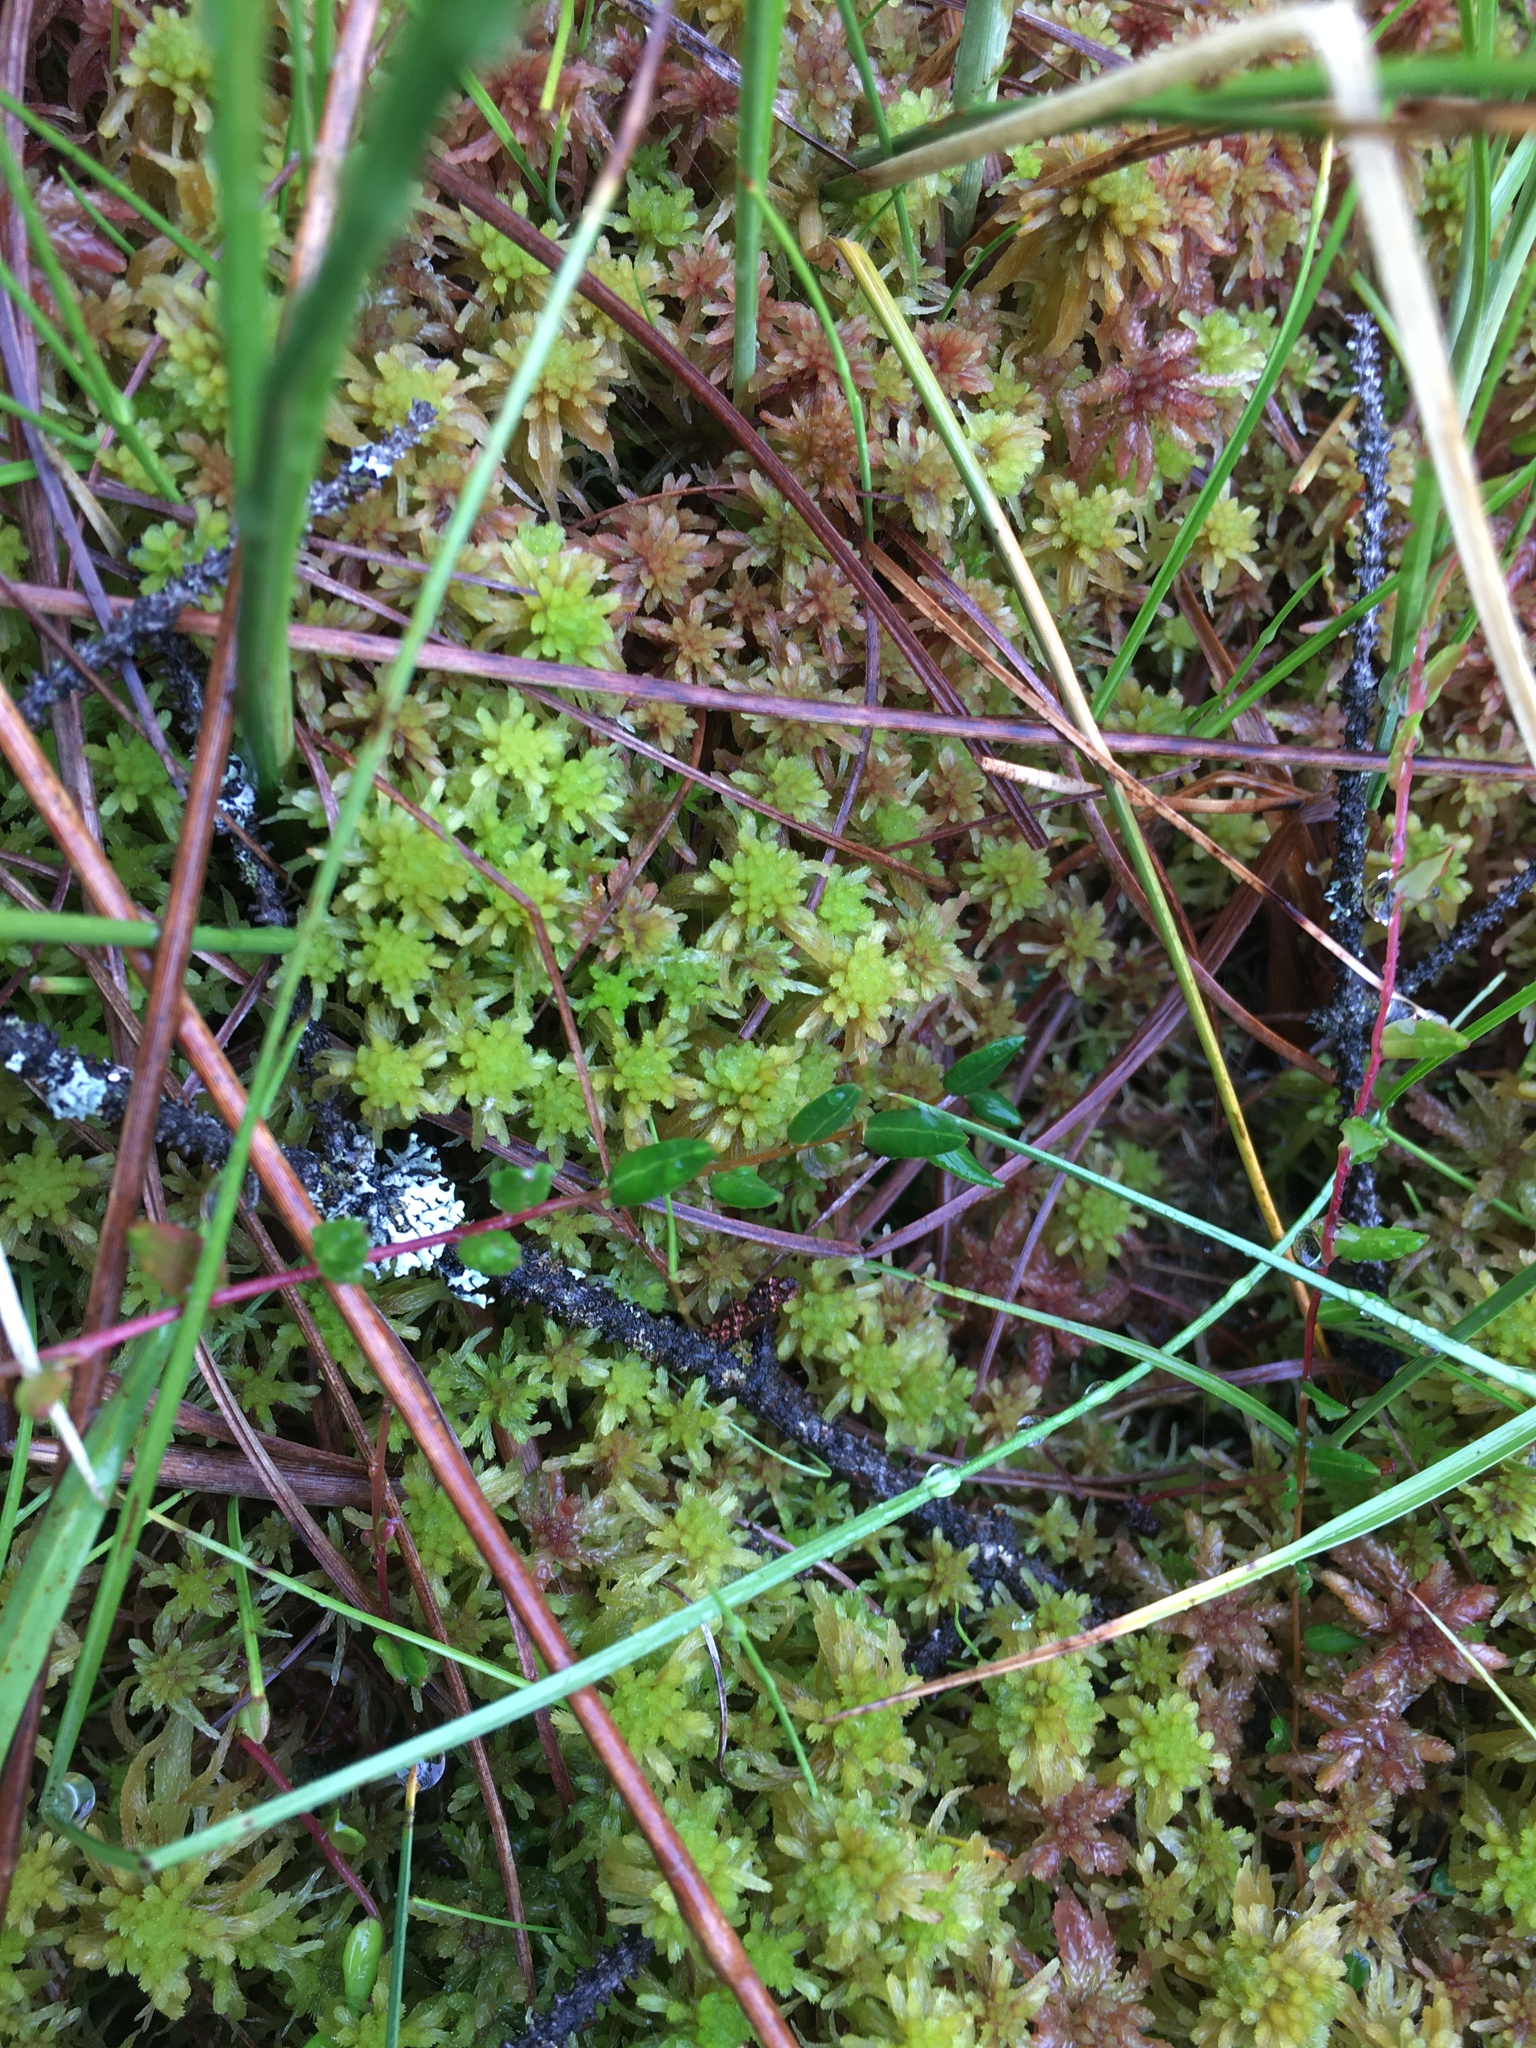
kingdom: Plantae
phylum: Tracheophyta
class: Magnoliopsida
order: Ericales
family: Ericaceae
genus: Vaccinium
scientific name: Vaccinium oxycoccos
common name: Cranberry
